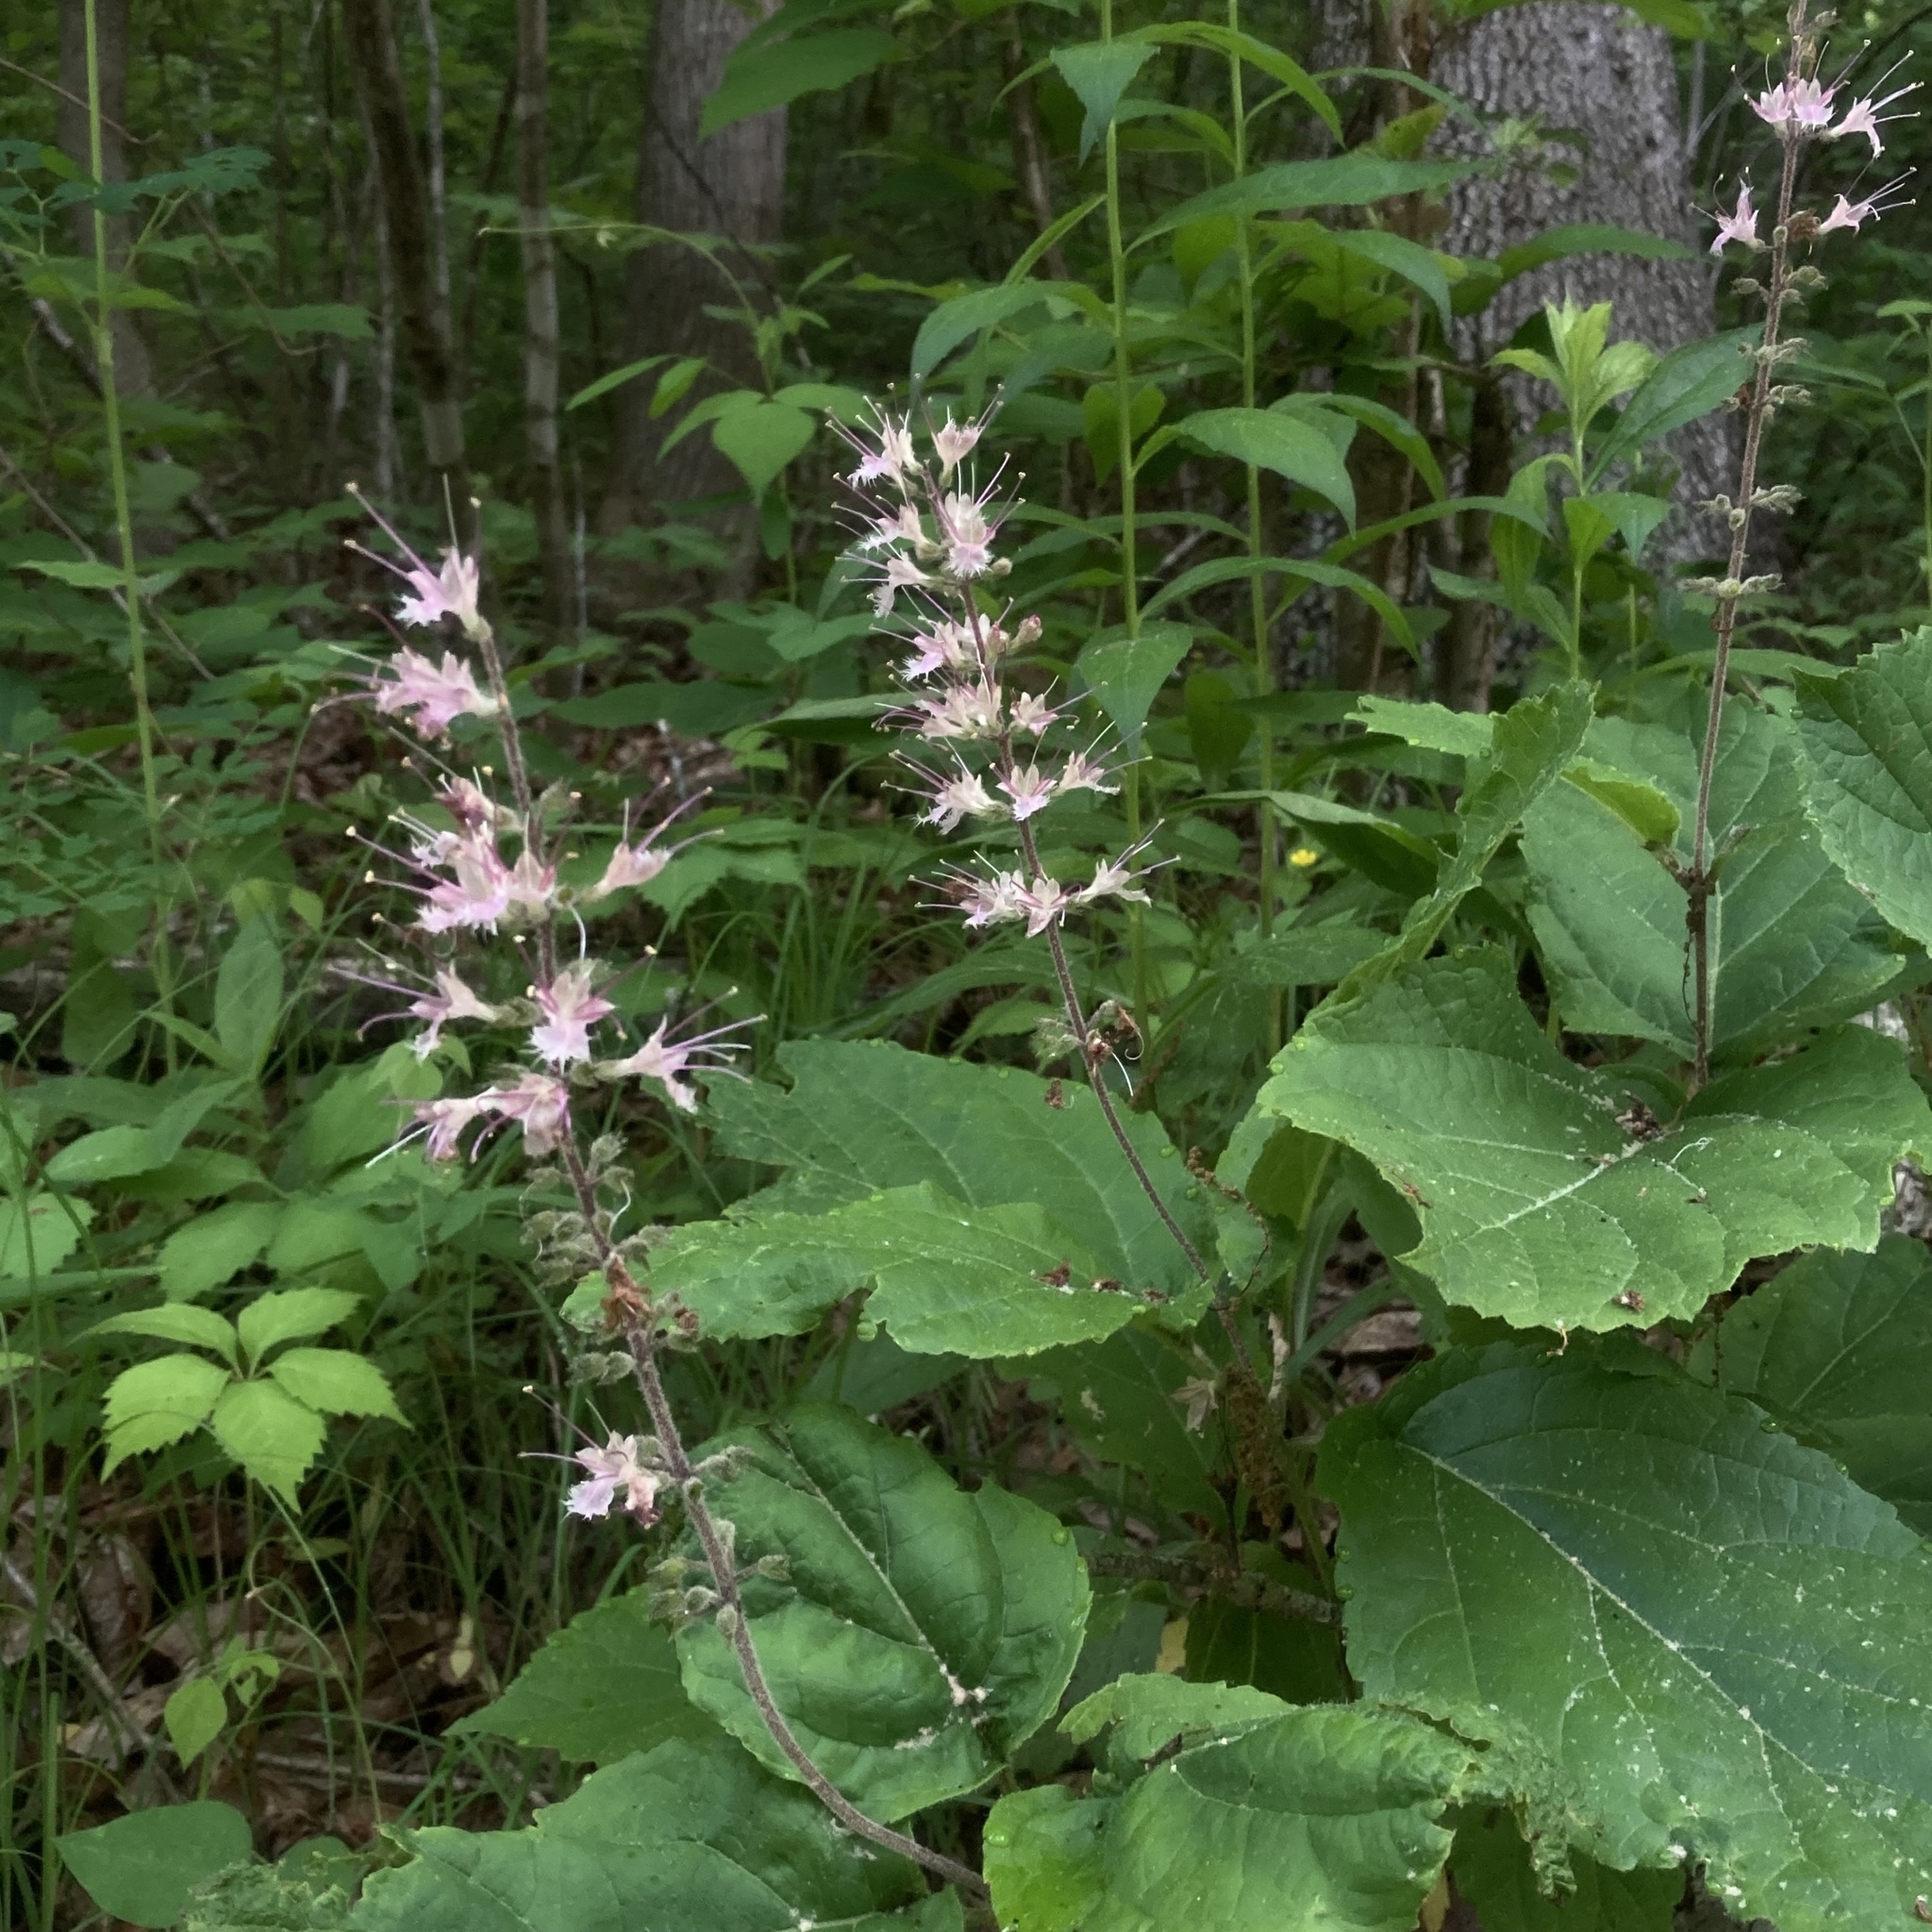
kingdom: Plantae
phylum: Tracheophyta
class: Magnoliopsida
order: Lamiales
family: Lamiaceae
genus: Collinsonia
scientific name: Collinsonia verticillata
